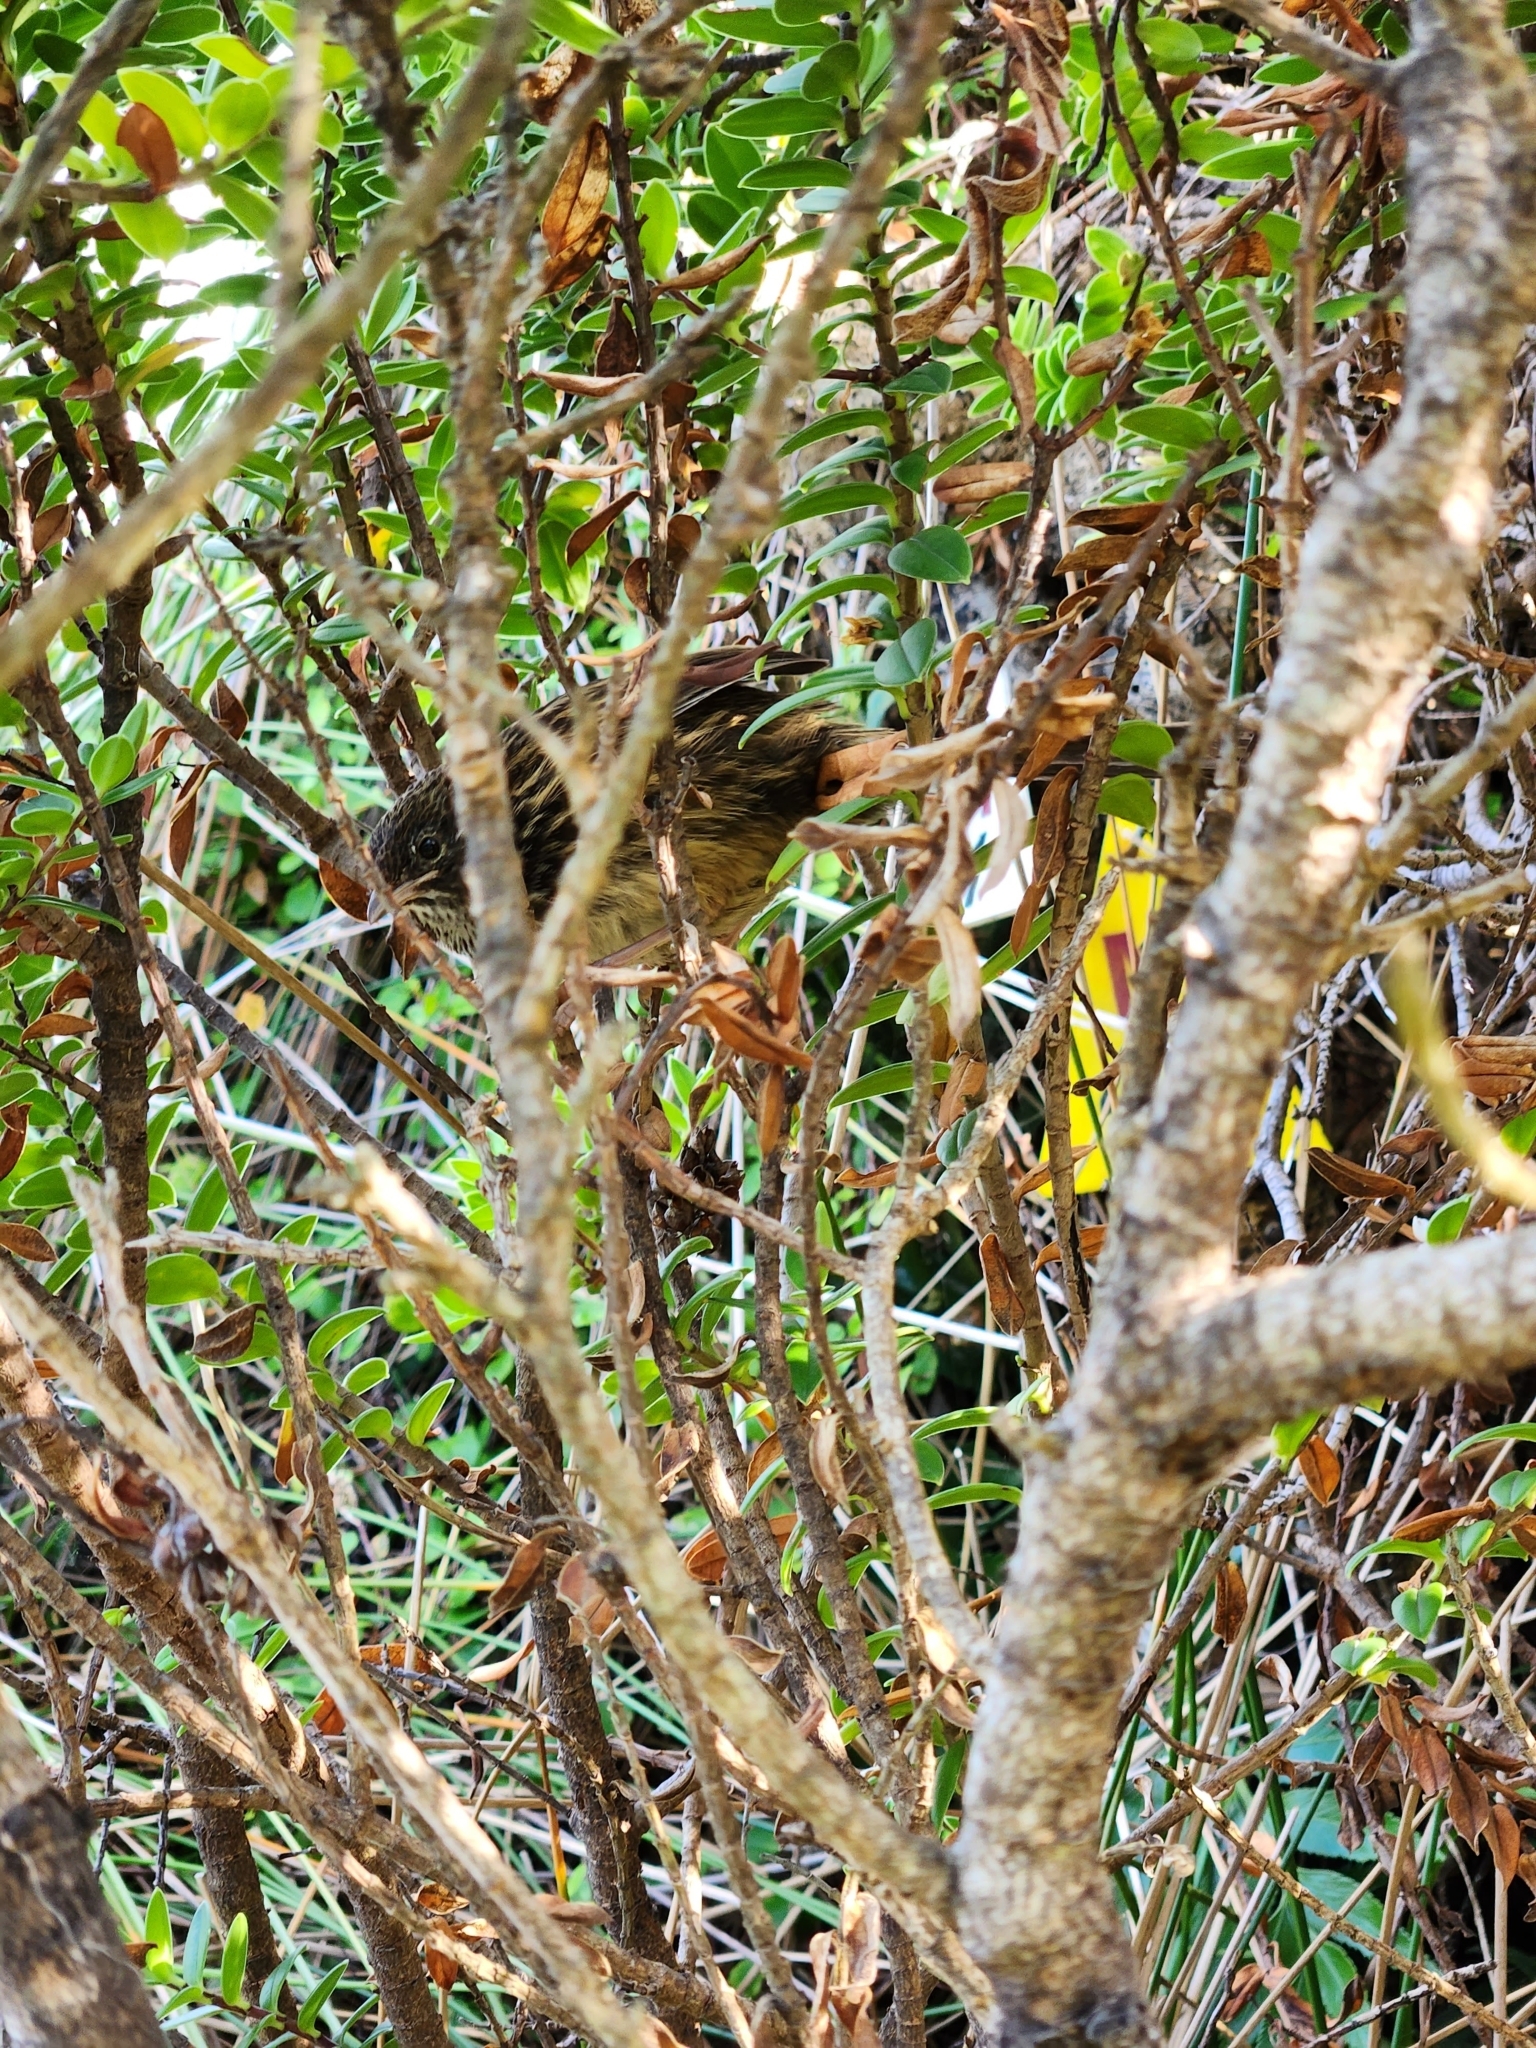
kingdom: Animalia
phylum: Chordata
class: Aves
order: Passeriformes
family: Locustellidae
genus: Poodytes
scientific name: Poodytes punctatus
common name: New zealand fernbird
